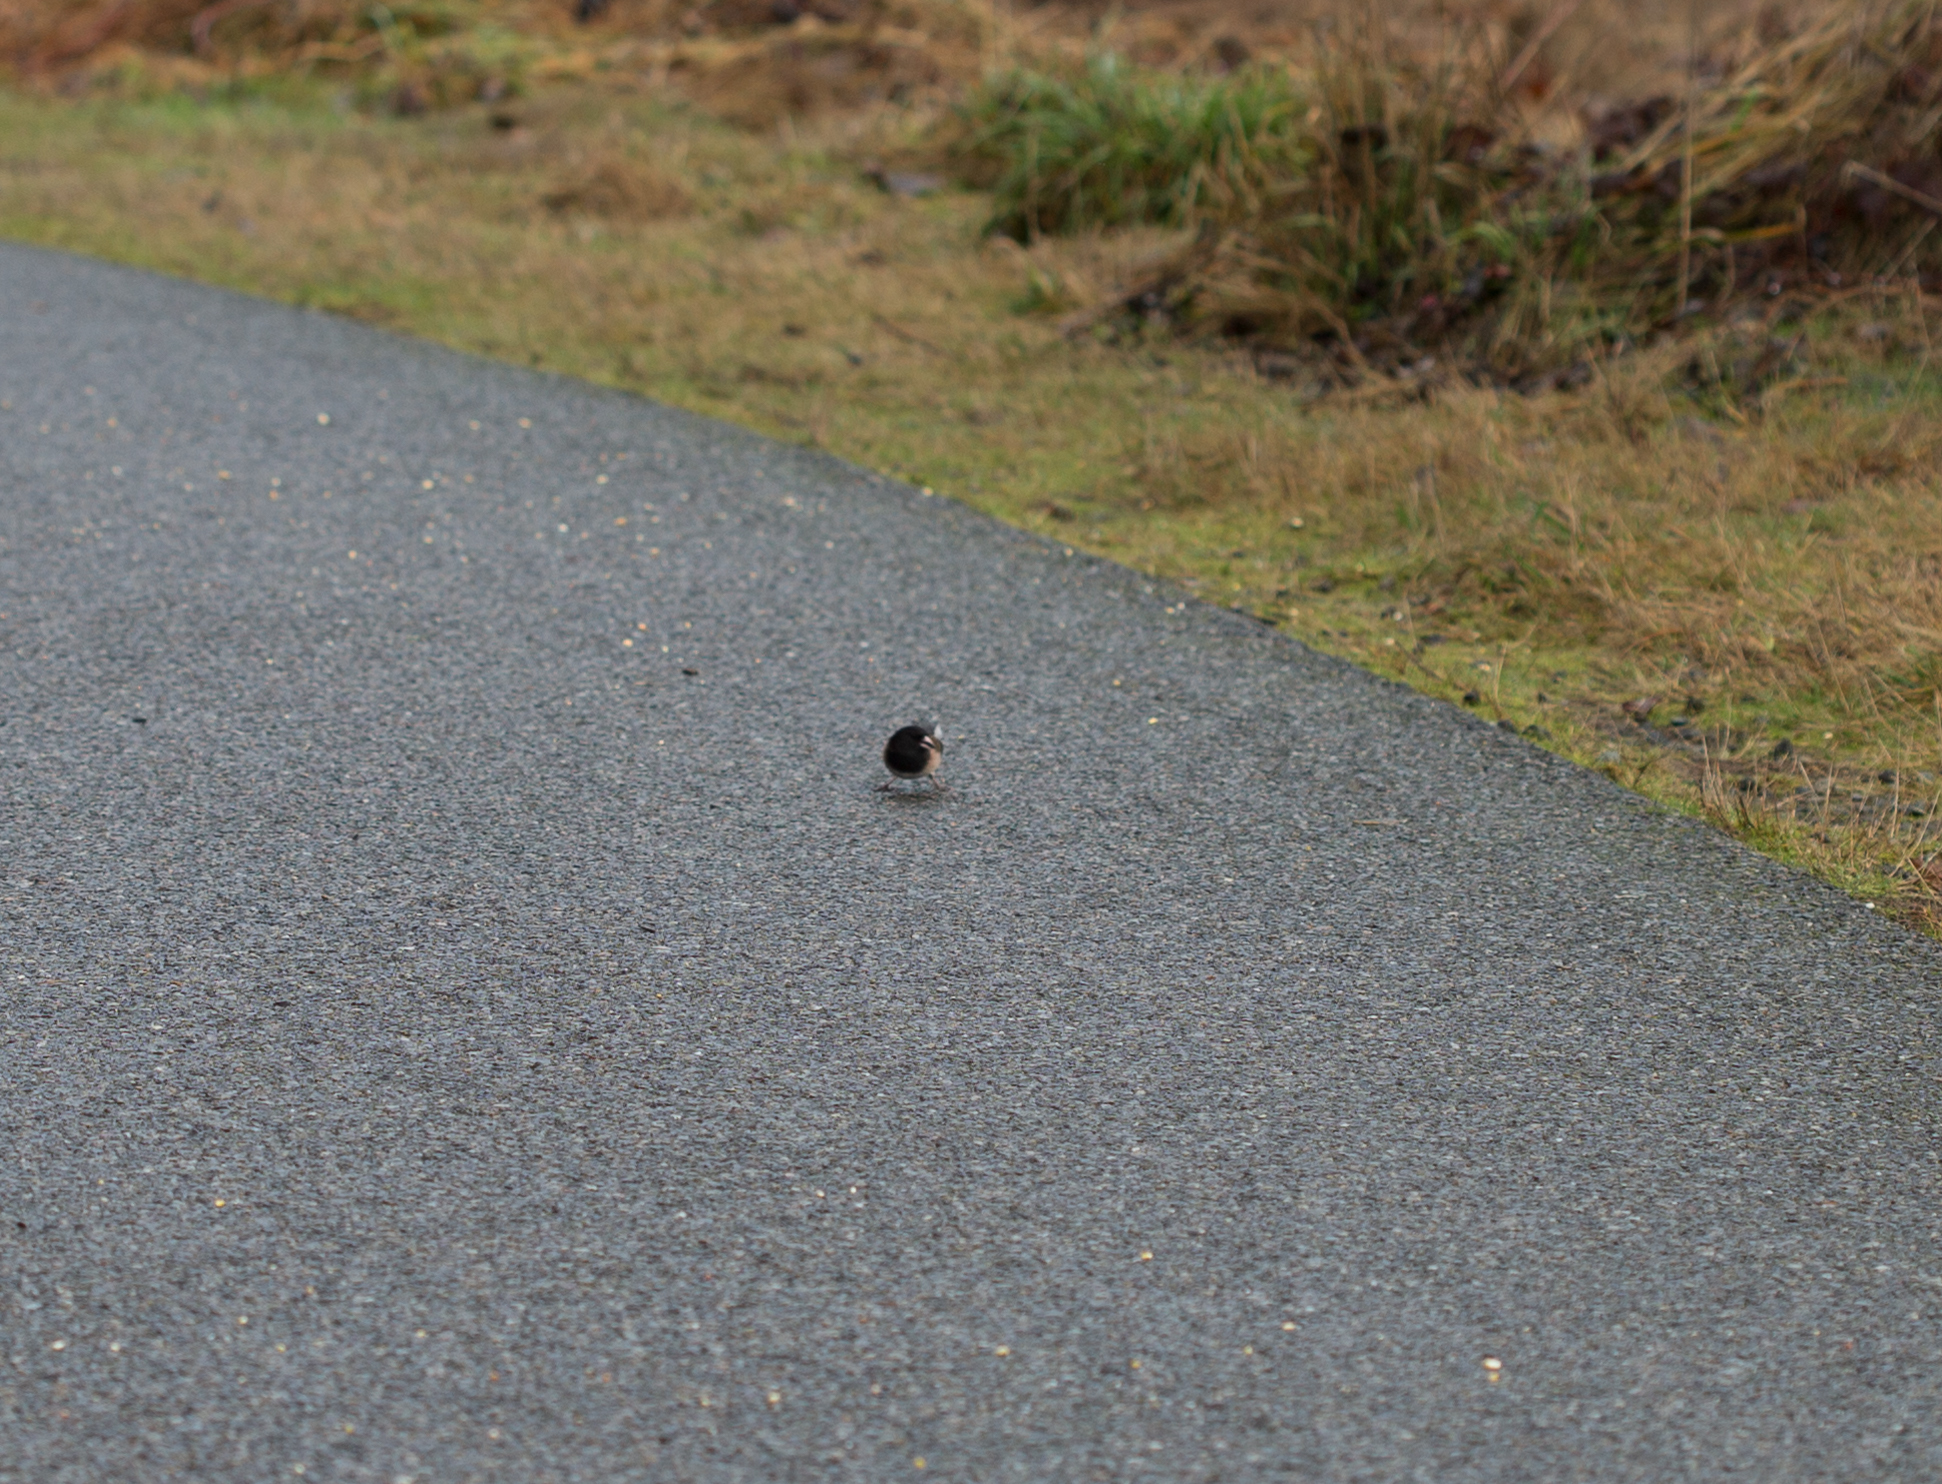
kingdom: Animalia
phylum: Chordata
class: Aves
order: Passeriformes
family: Passerellidae
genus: Junco
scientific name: Junco hyemalis
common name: Dark-eyed junco
